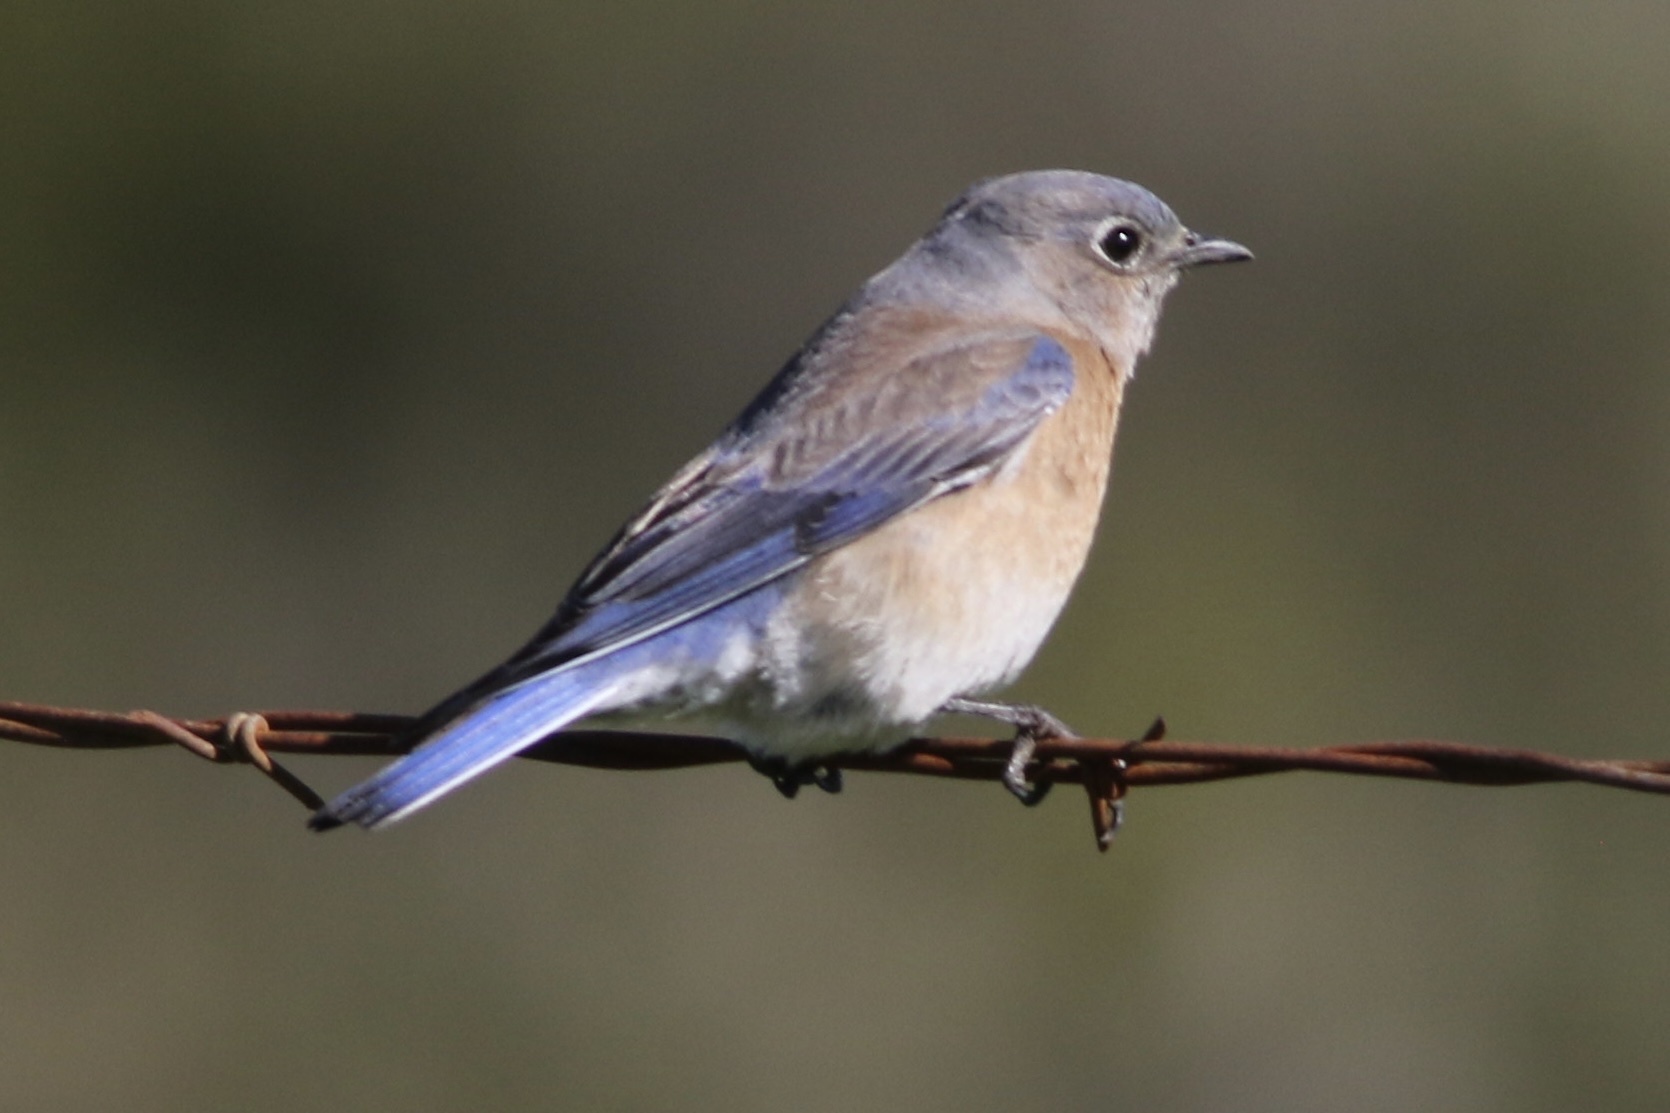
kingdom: Animalia
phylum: Chordata
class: Aves
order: Passeriformes
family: Turdidae
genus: Sialia
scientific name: Sialia mexicana
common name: Western bluebird
